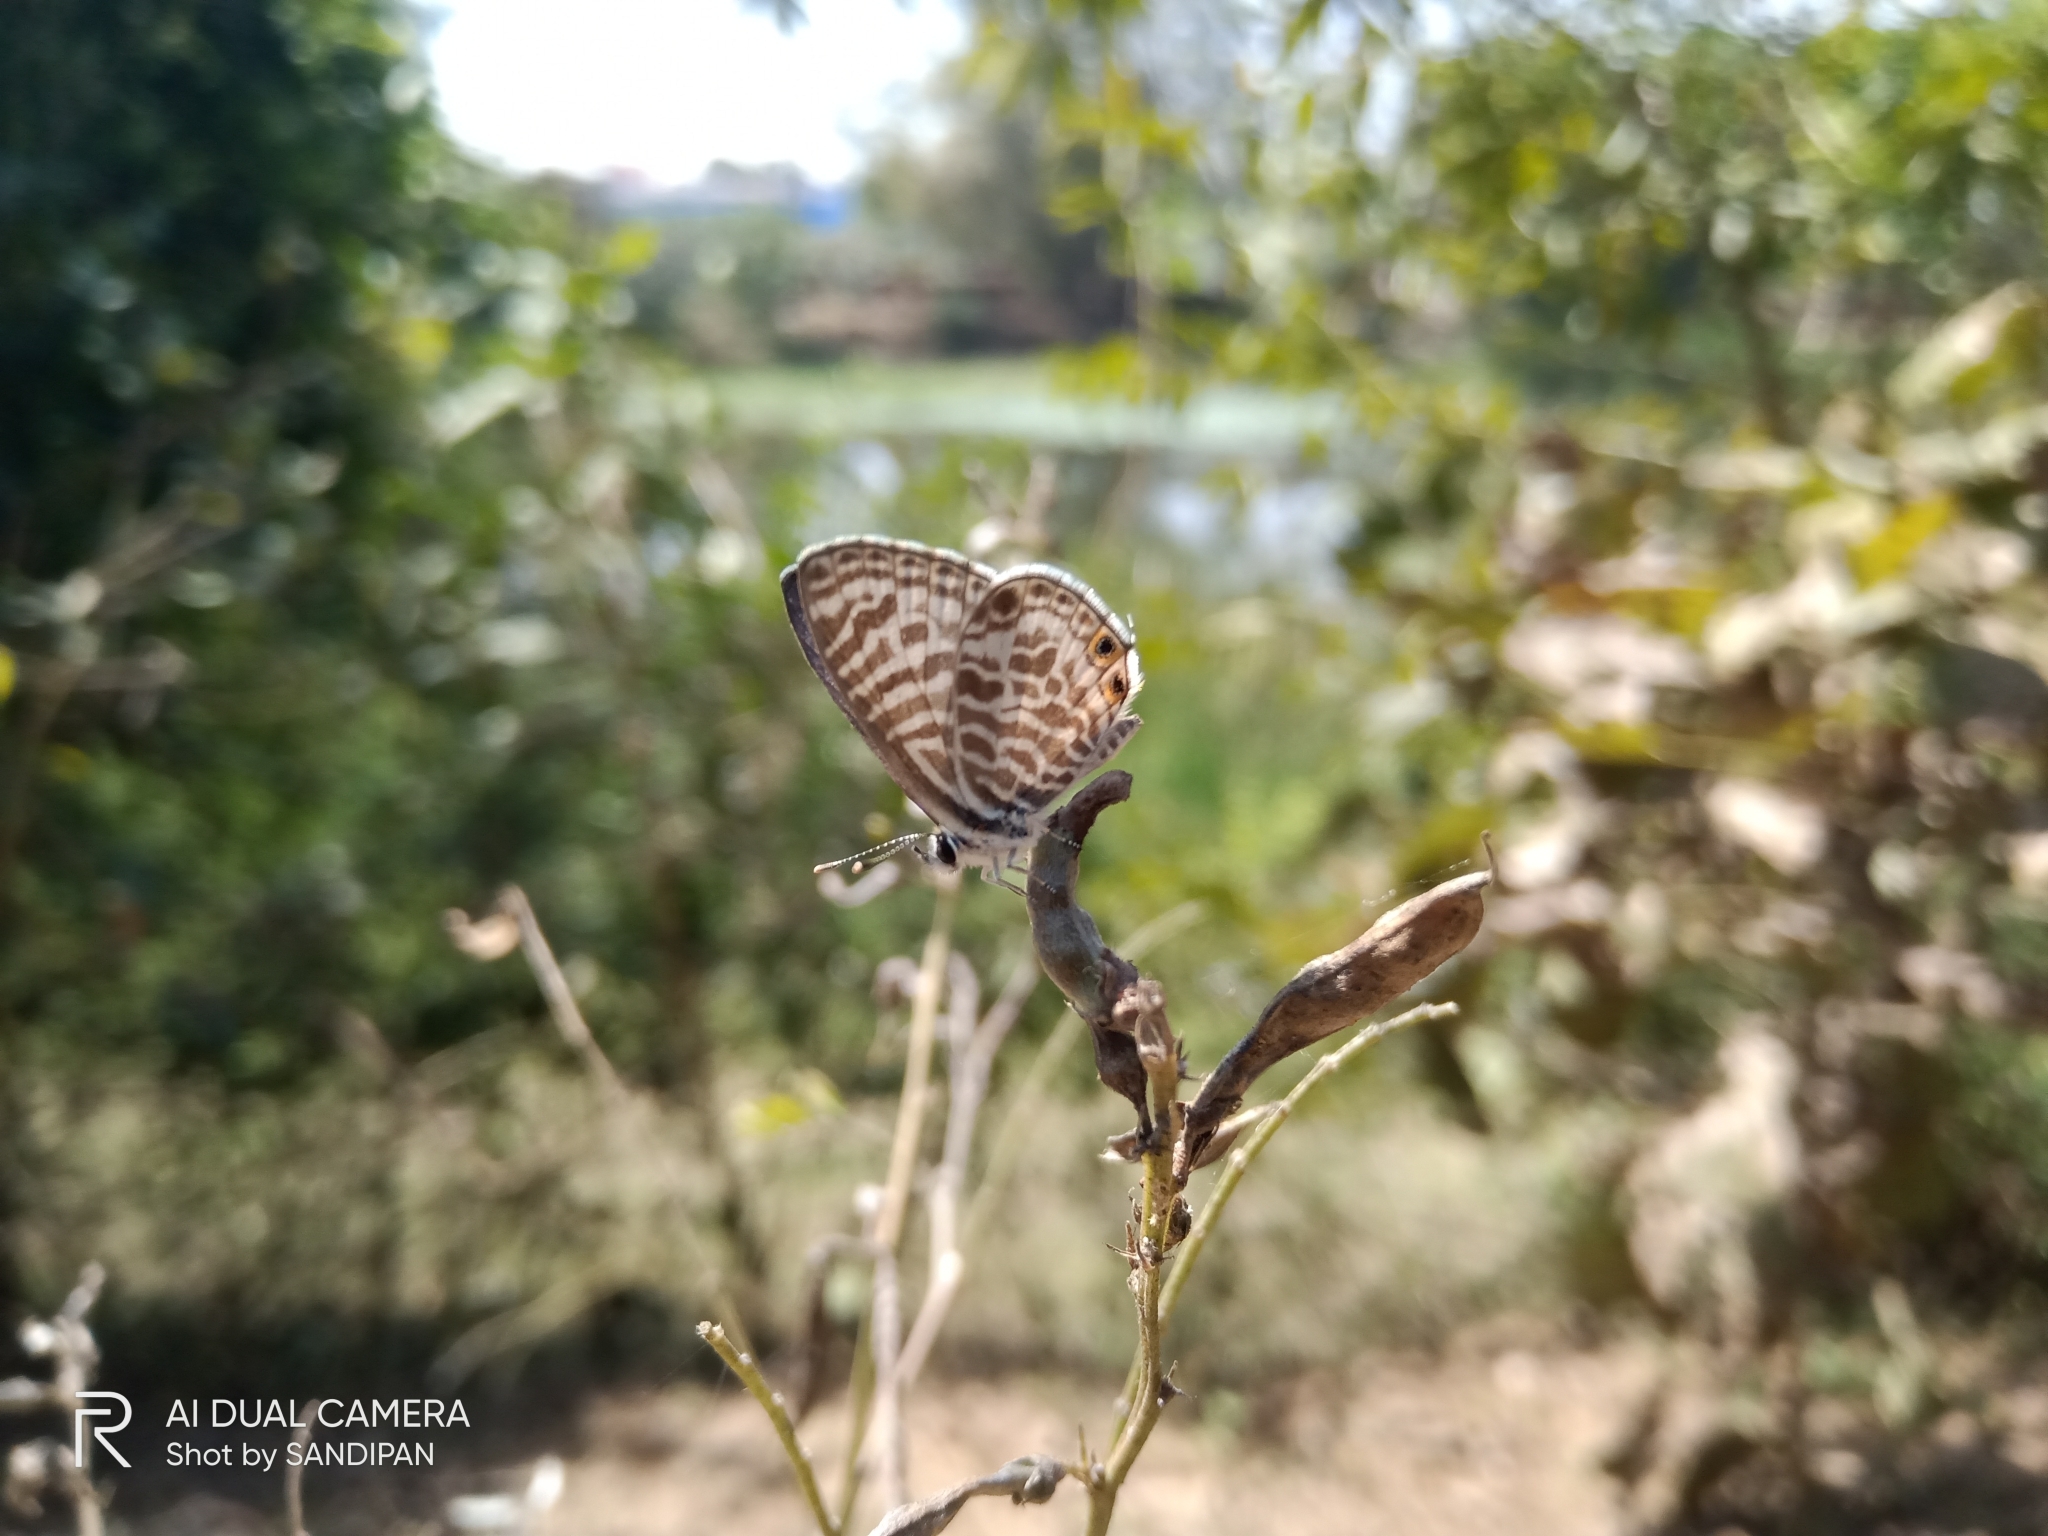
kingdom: Animalia
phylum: Arthropoda
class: Insecta
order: Lepidoptera
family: Lycaenidae
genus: Leptotes
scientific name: Leptotes plinius
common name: Zebra blue
